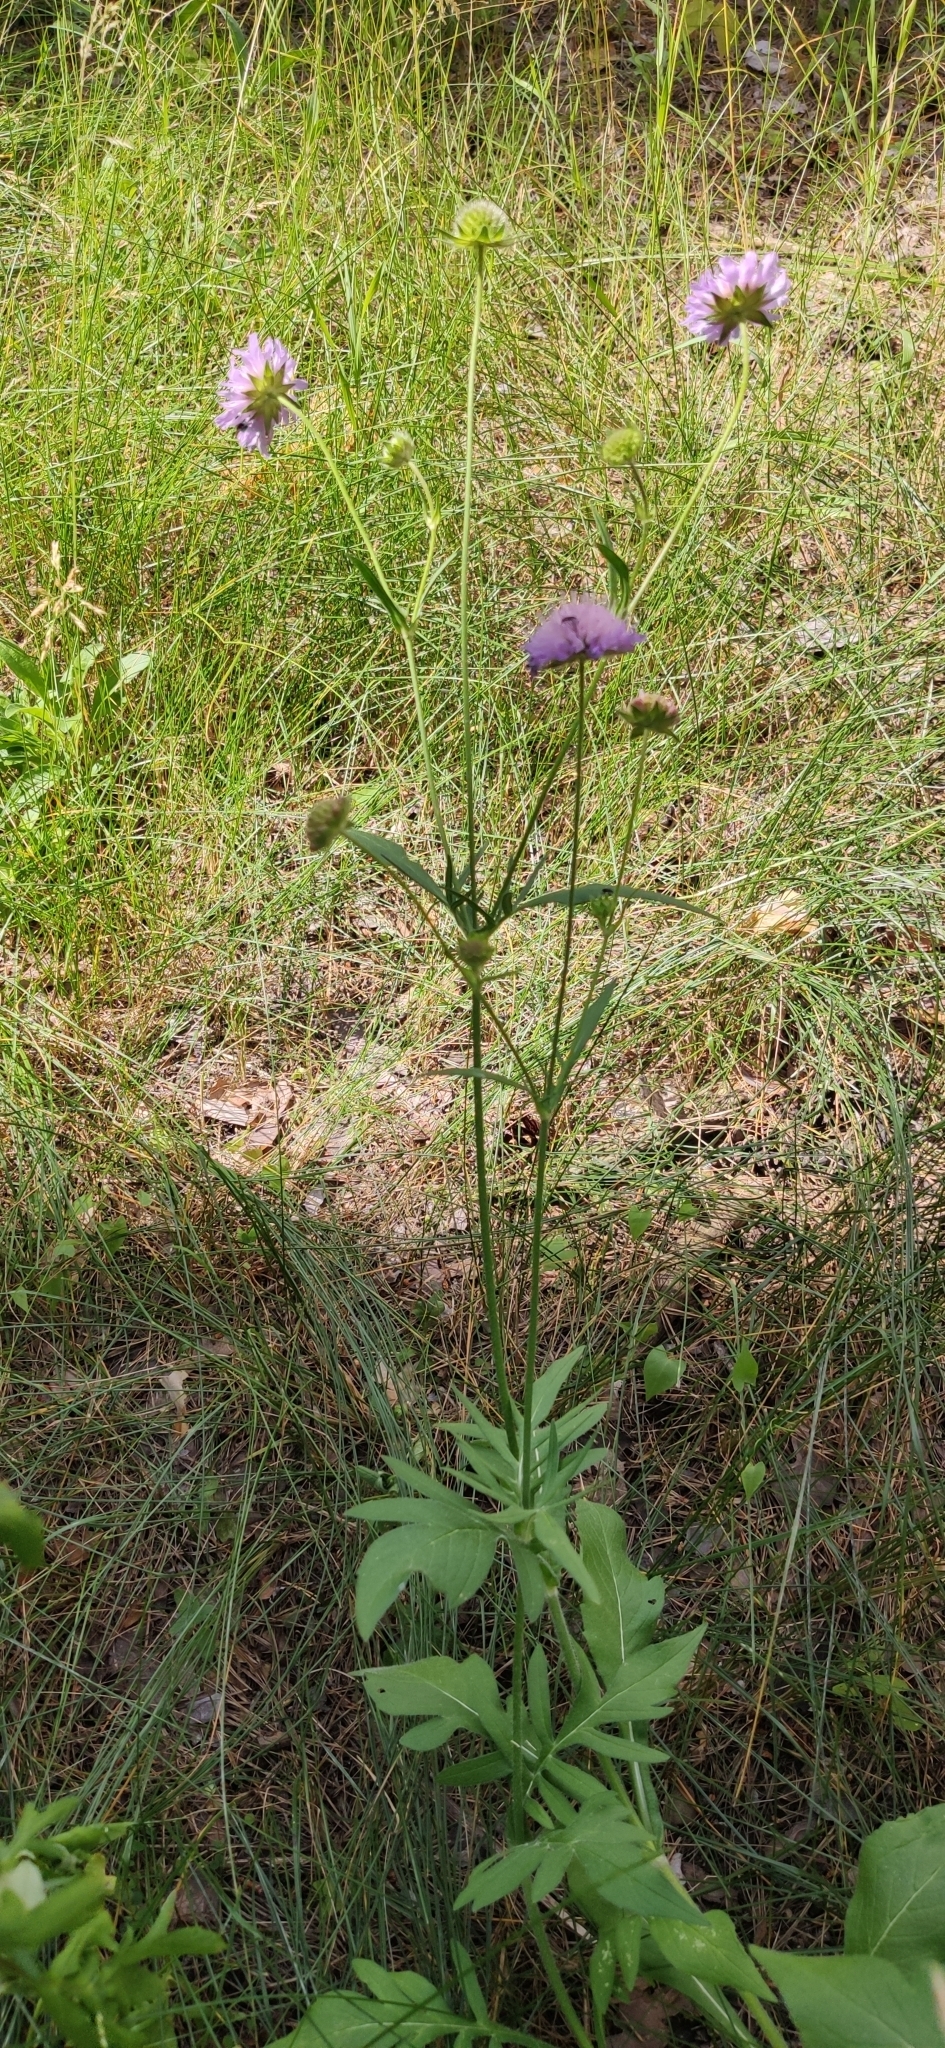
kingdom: Plantae
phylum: Tracheophyta
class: Magnoliopsida
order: Dipsacales
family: Caprifoliaceae
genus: Knautia
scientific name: Knautia arvensis
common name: Field scabiosa
